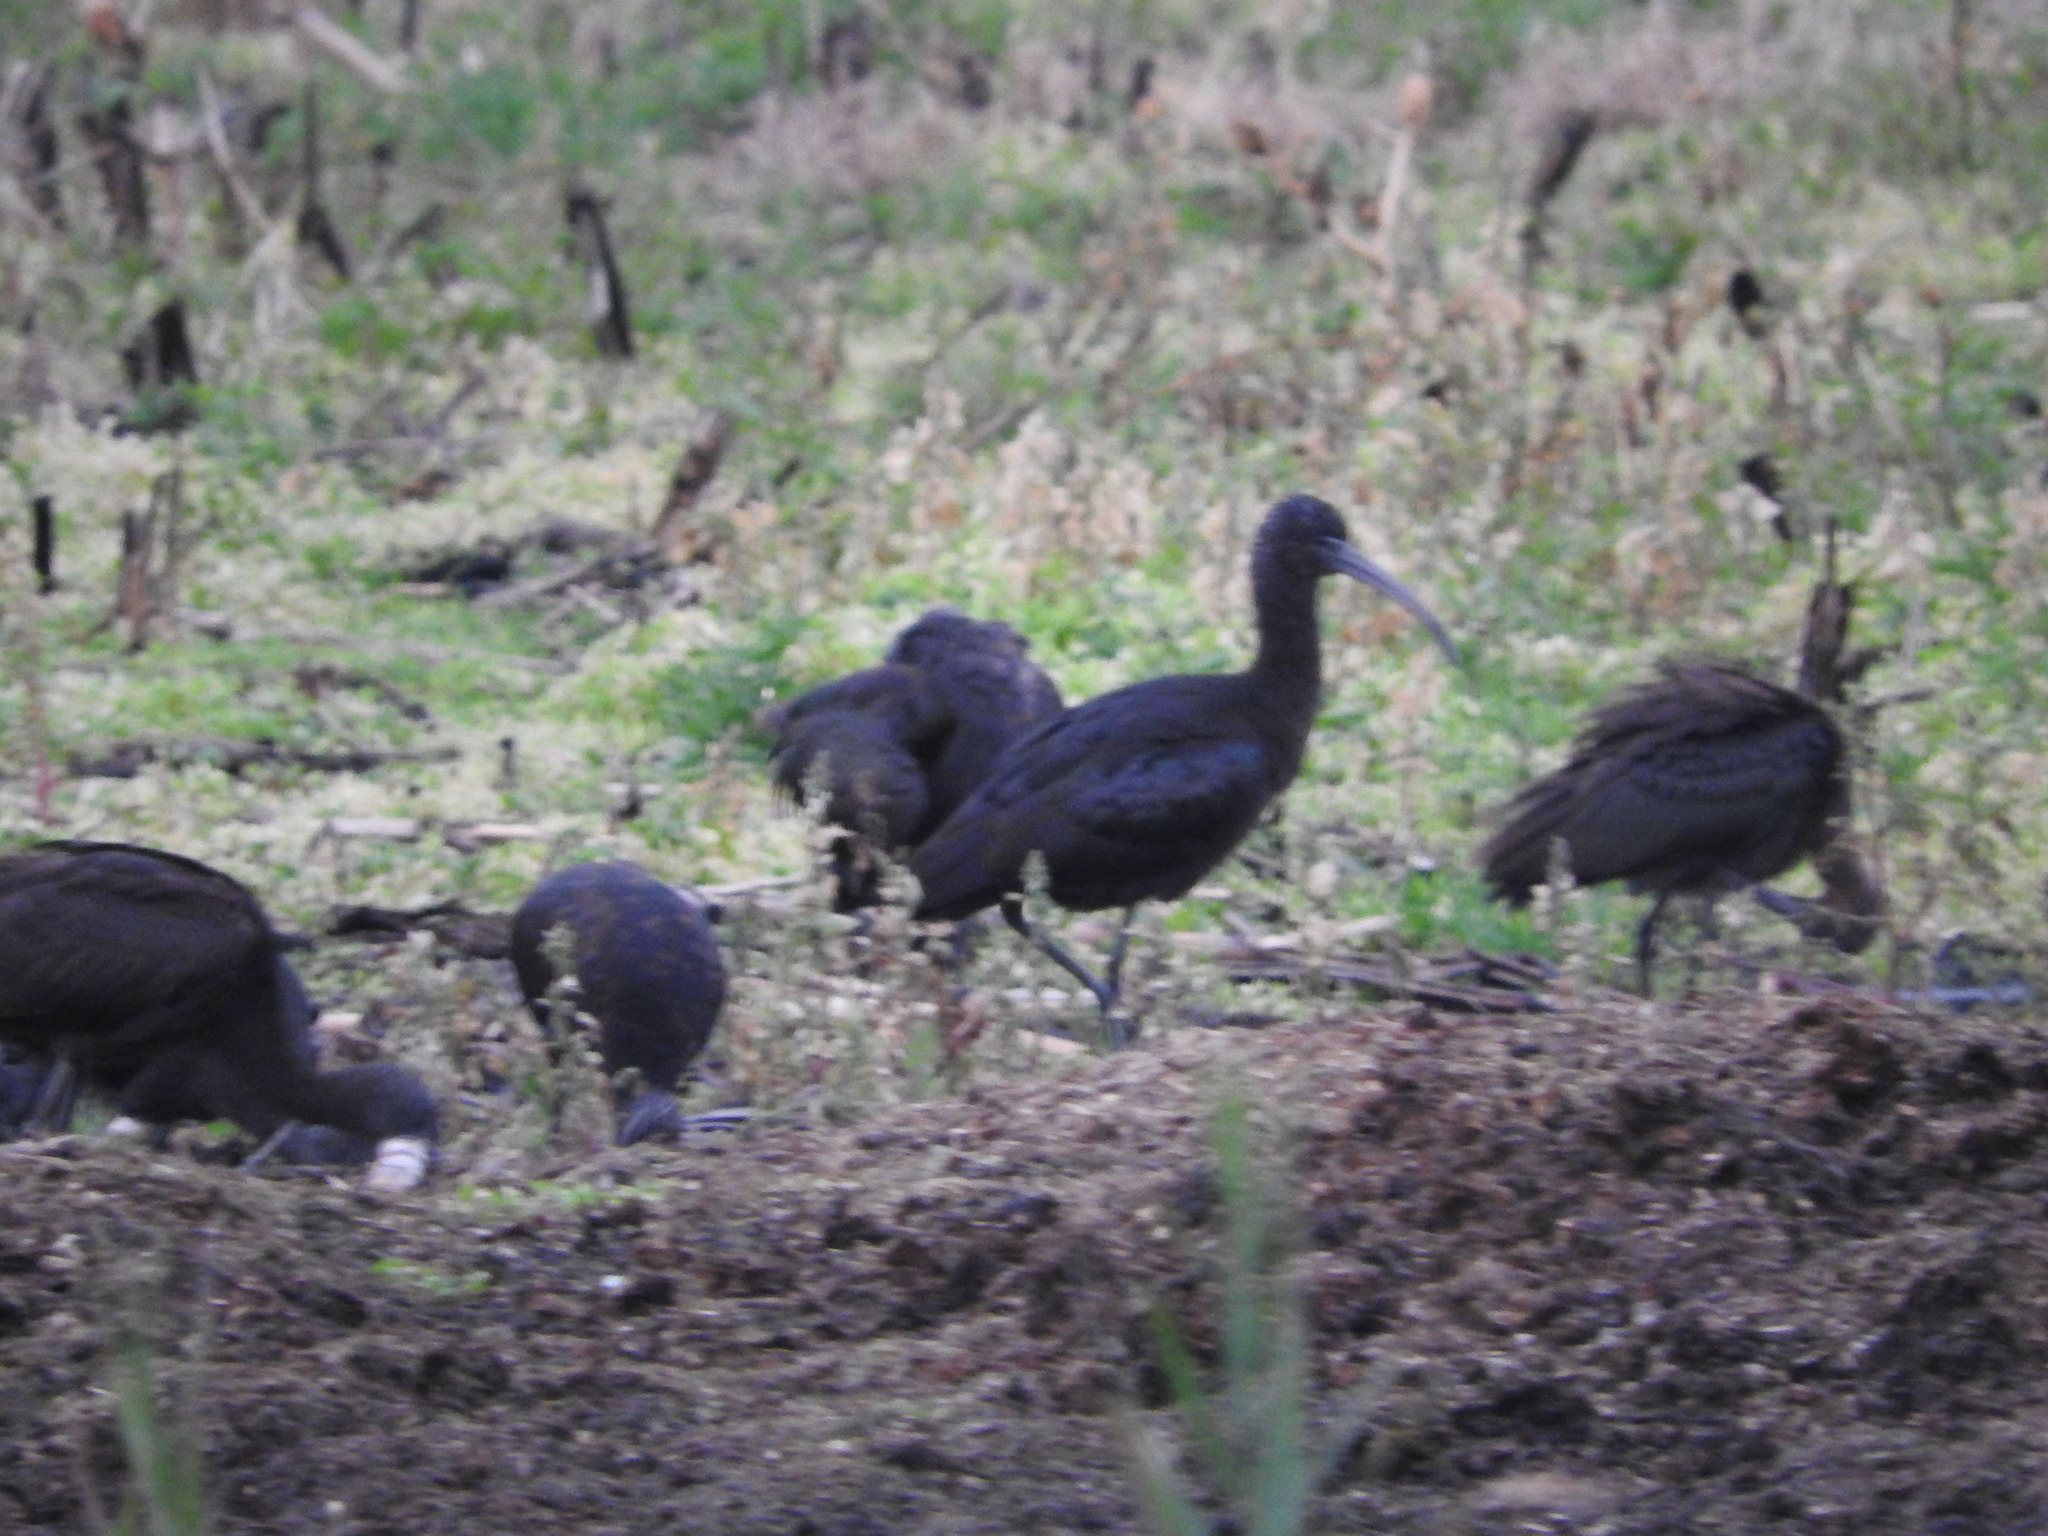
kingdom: Animalia
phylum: Chordata
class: Aves
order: Pelecaniformes
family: Threskiornithidae
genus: Plegadis
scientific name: Plegadis falcinellus
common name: Glossy ibis
